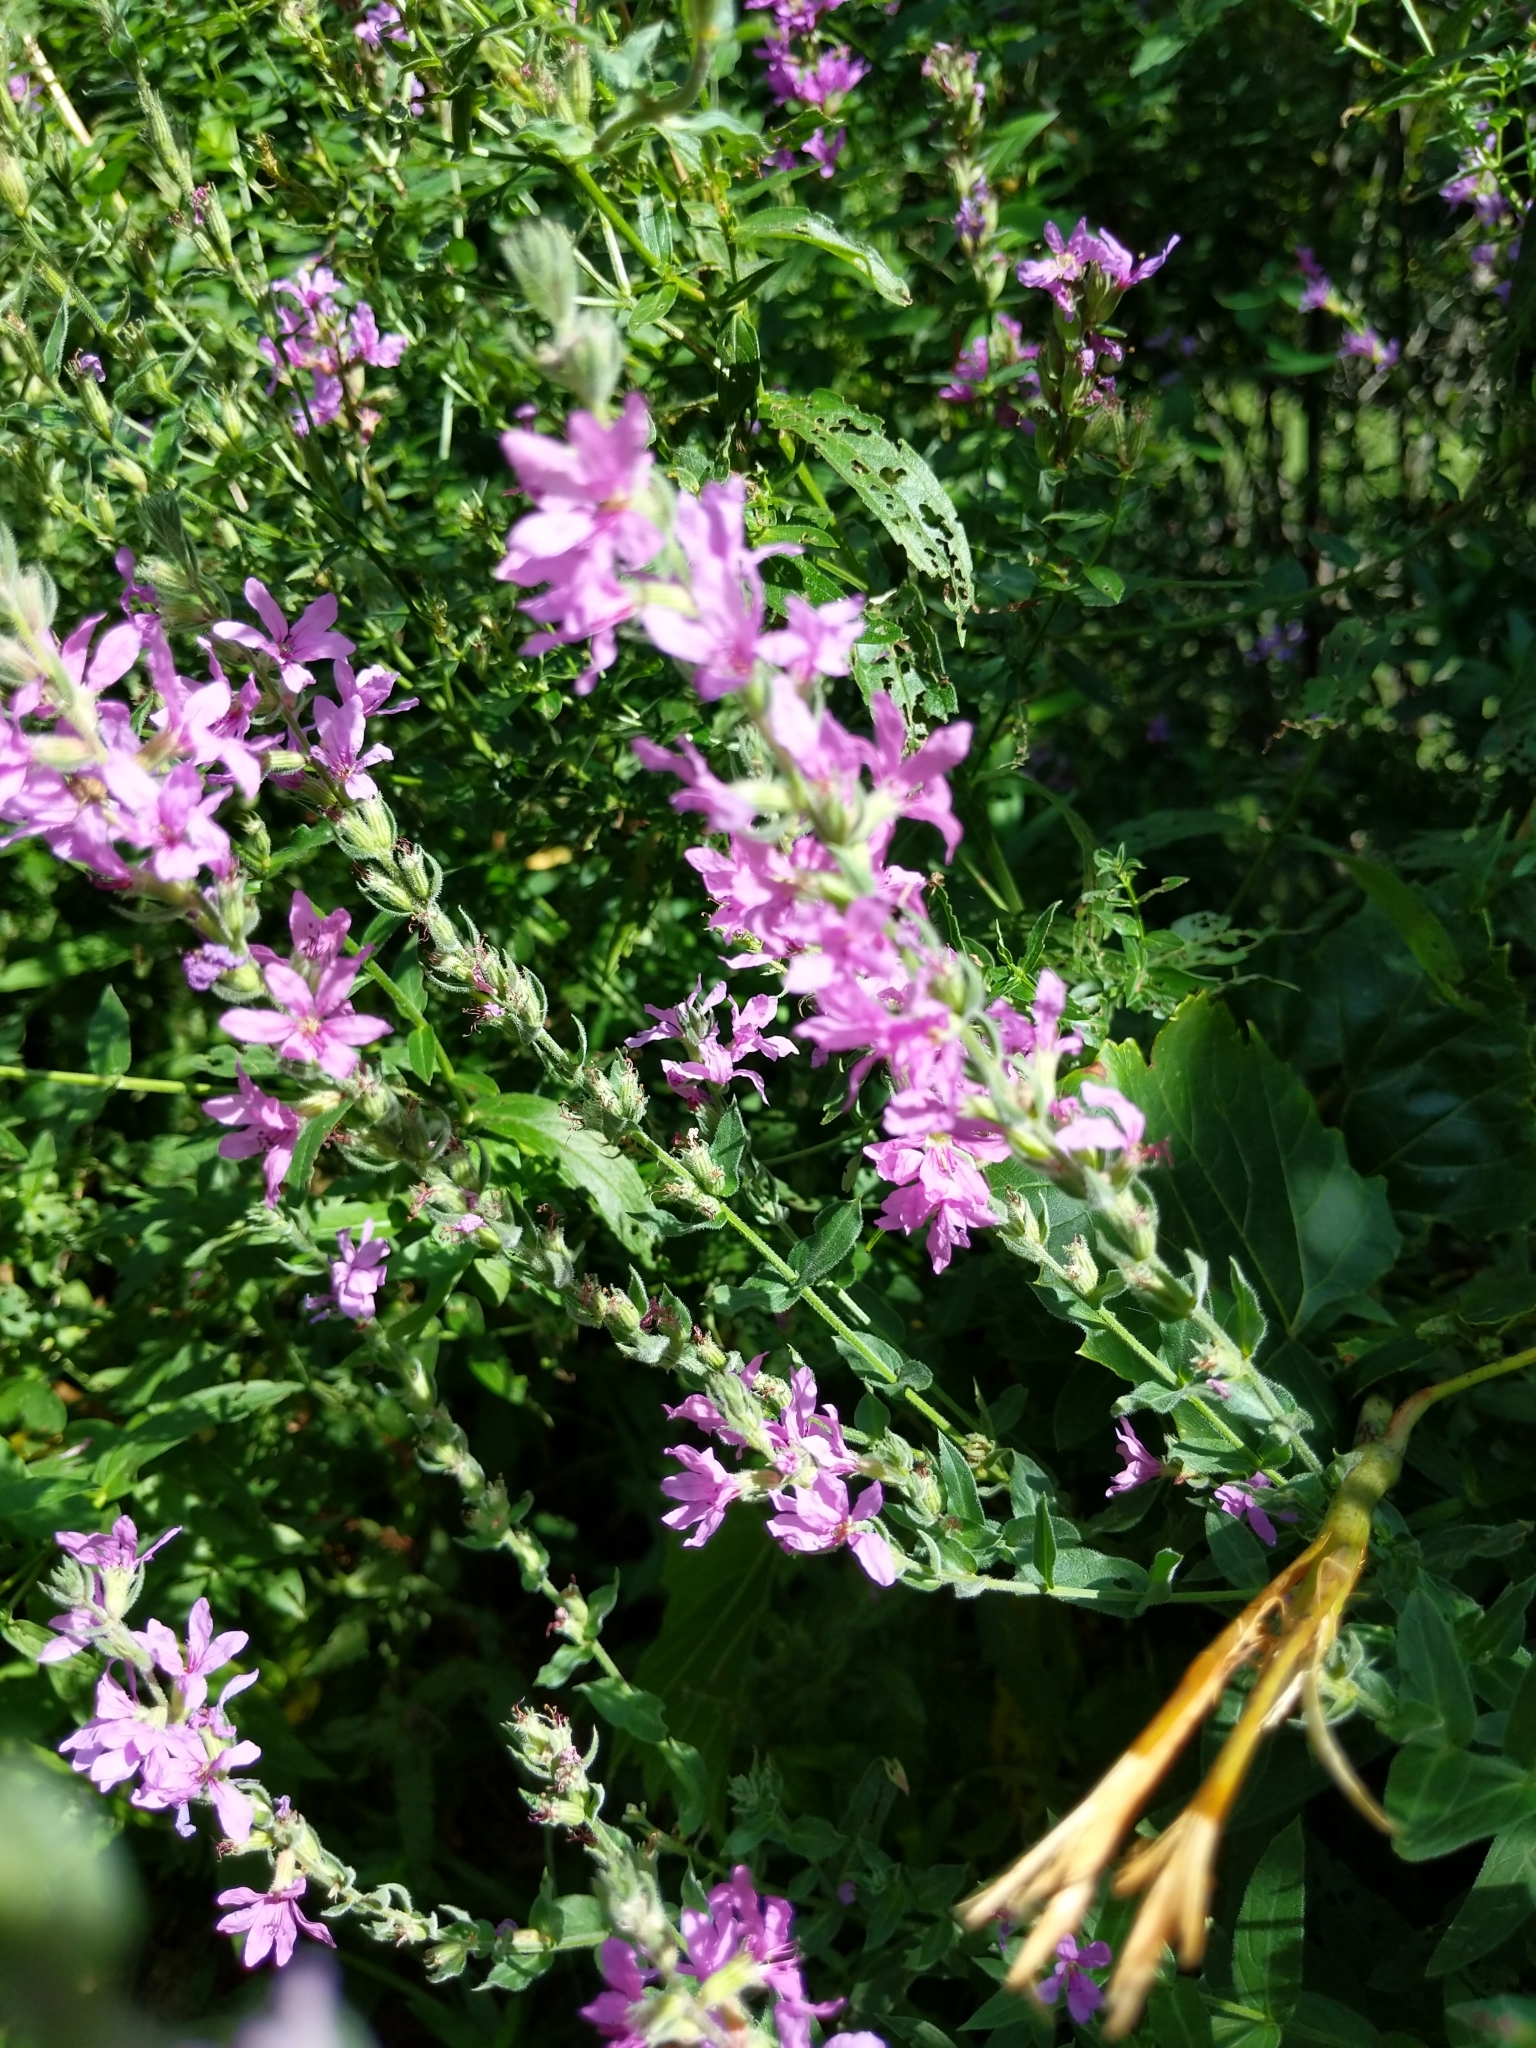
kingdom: Plantae
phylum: Tracheophyta
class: Magnoliopsida
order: Myrtales
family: Lythraceae
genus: Lythrum
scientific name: Lythrum salicaria
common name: Purple loosestrife
